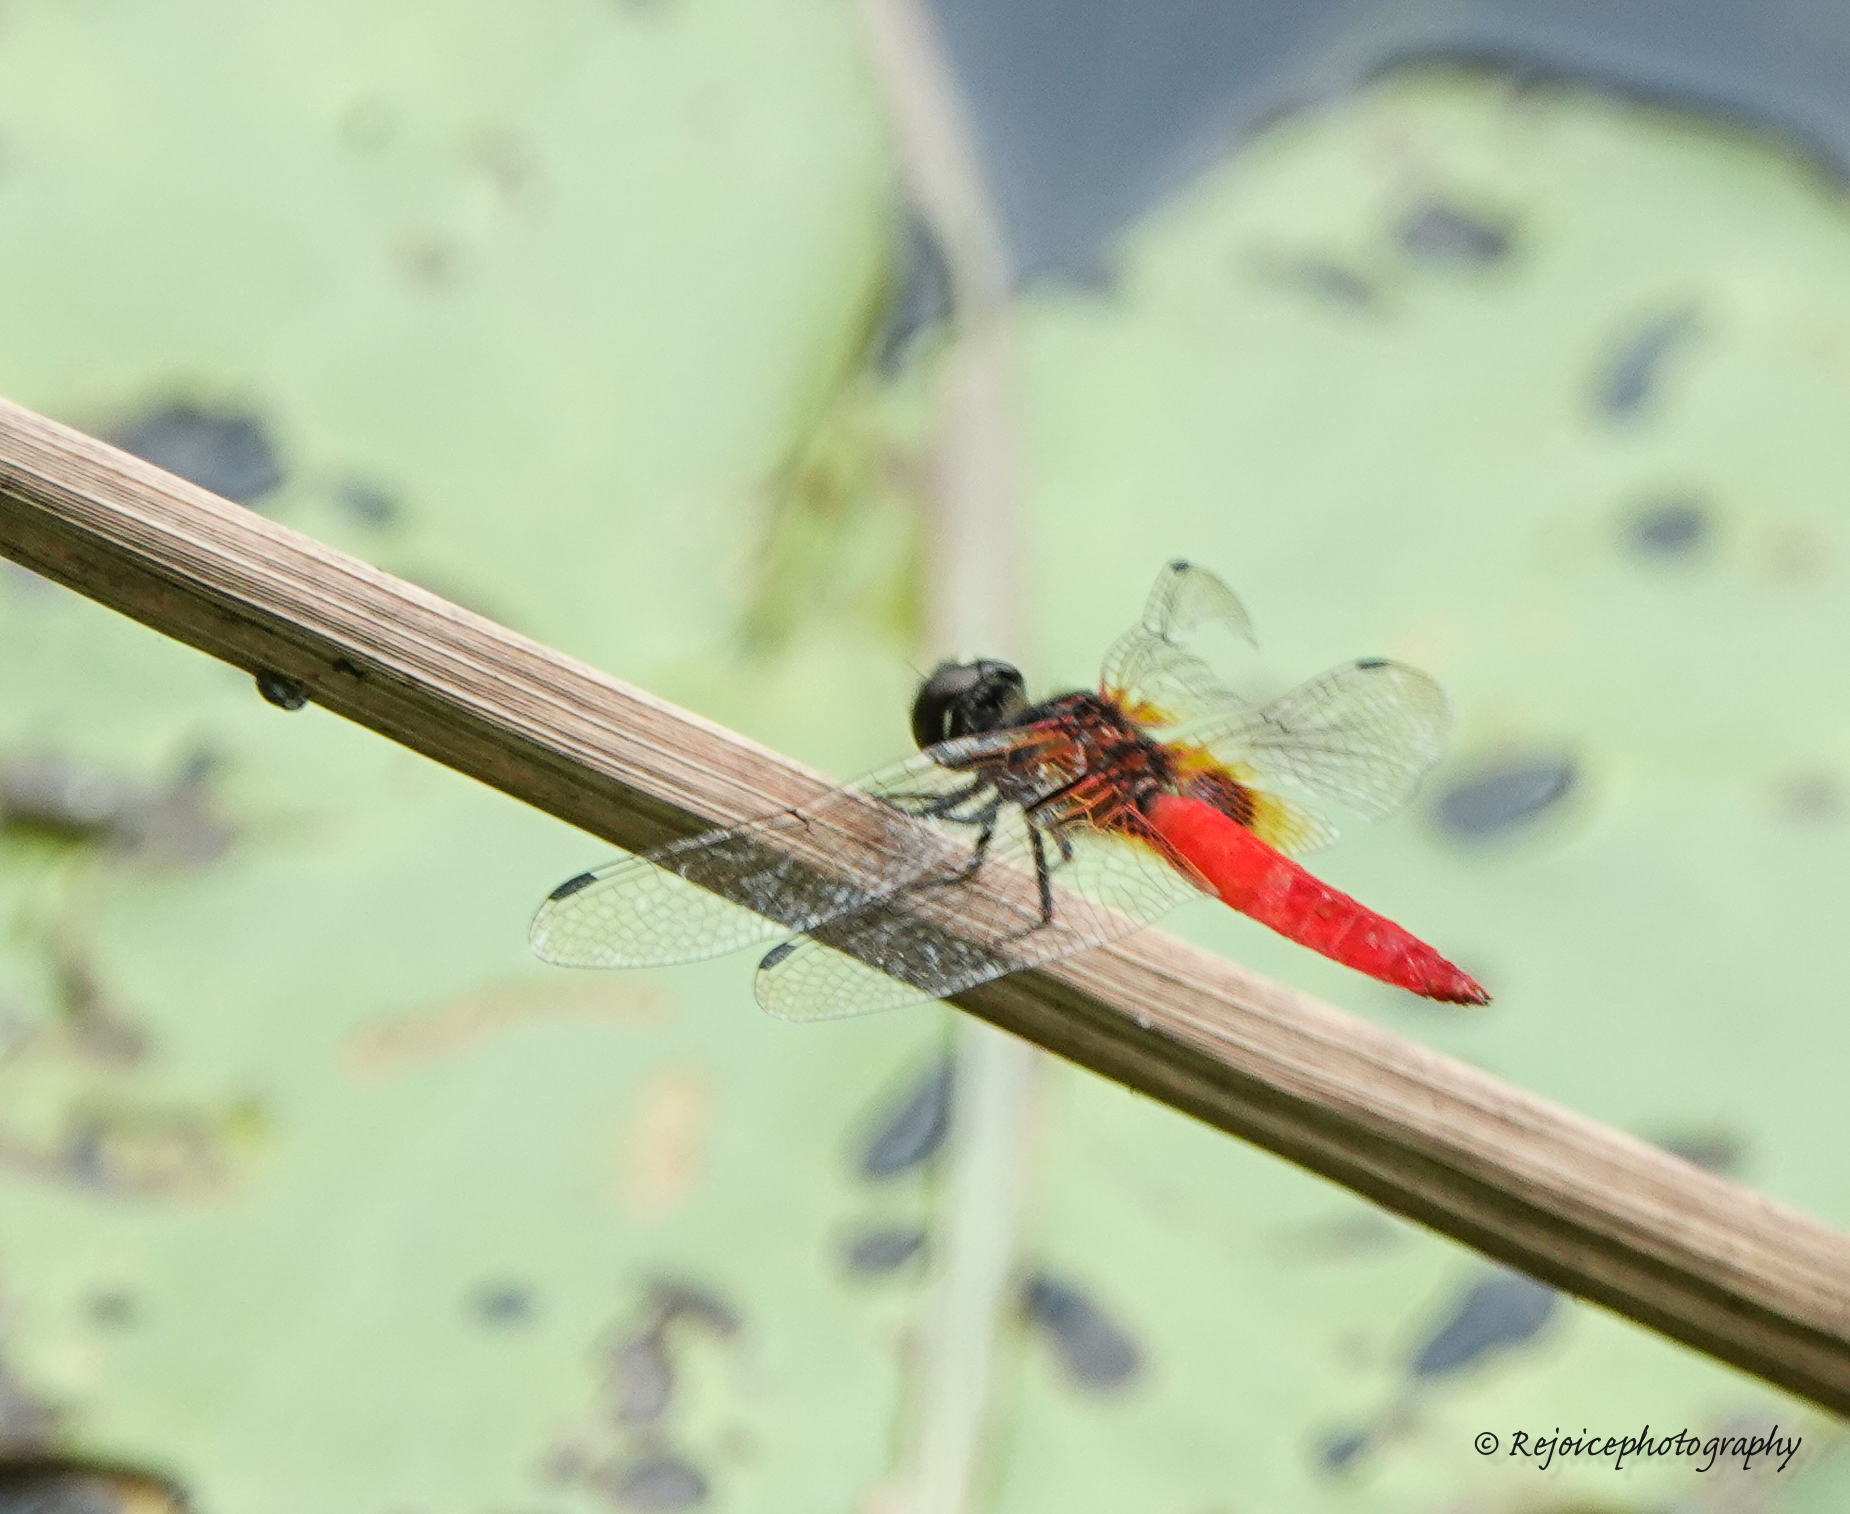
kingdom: Animalia
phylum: Arthropoda
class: Insecta
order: Odonata
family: Libellulidae
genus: Aethriamanta
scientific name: Aethriamanta brevipennis
